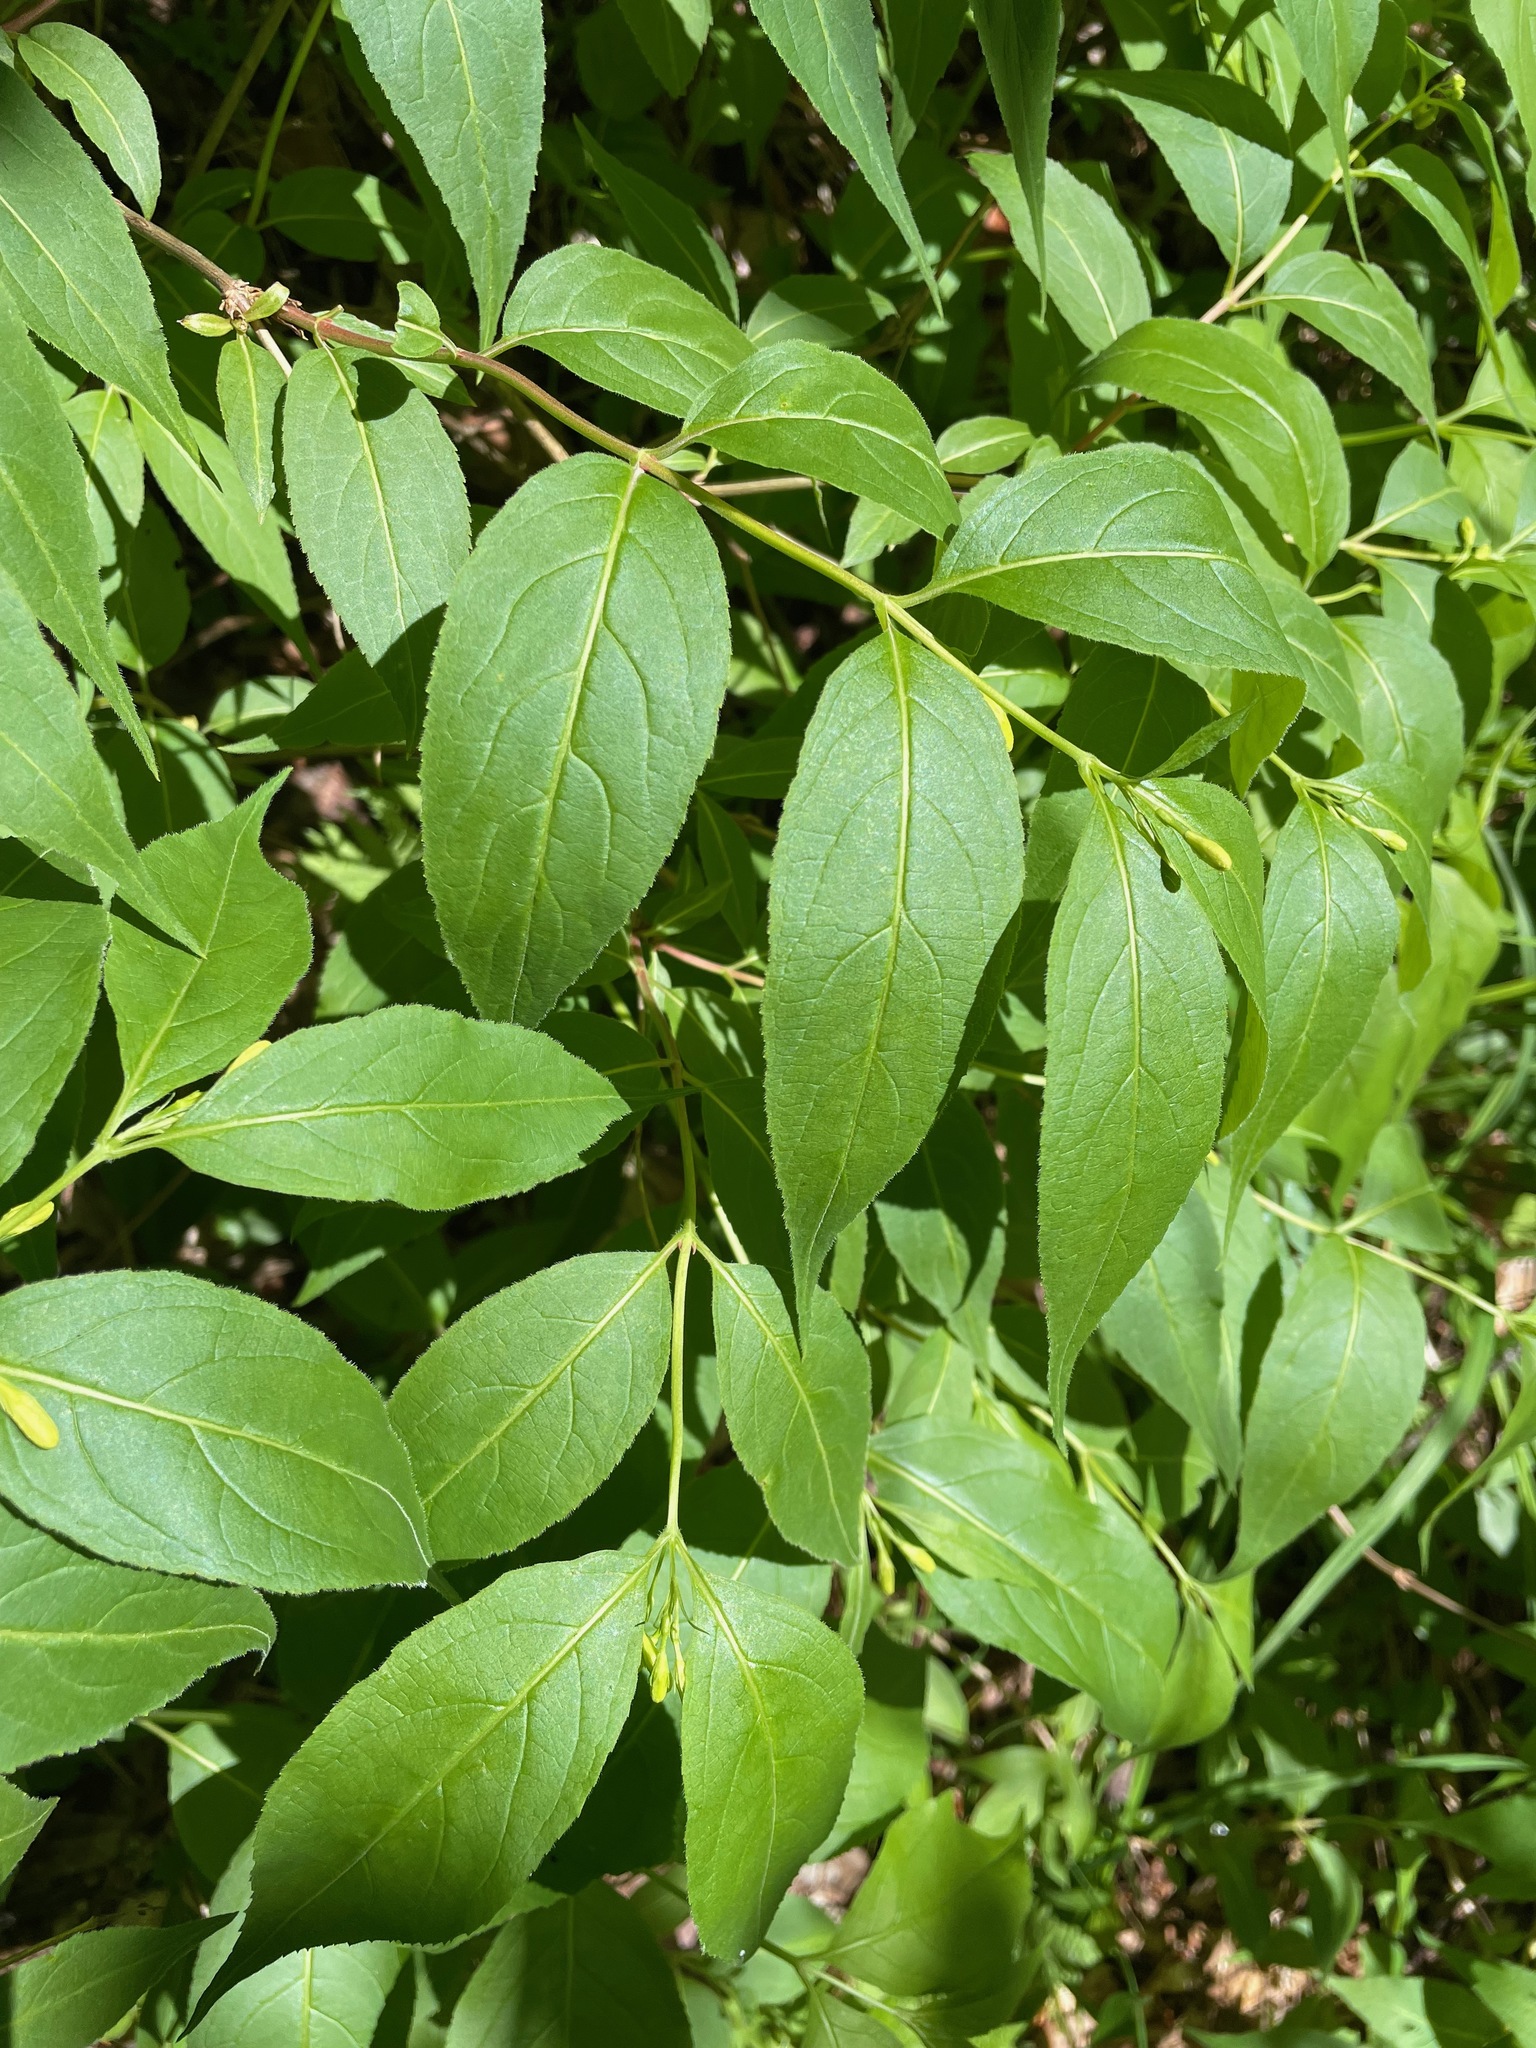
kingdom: Plantae
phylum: Tracheophyta
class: Magnoliopsida
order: Dipsacales
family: Caprifoliaceae
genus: Diervilla
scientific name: Diervilla lonicera
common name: Bush-honeysuckle
